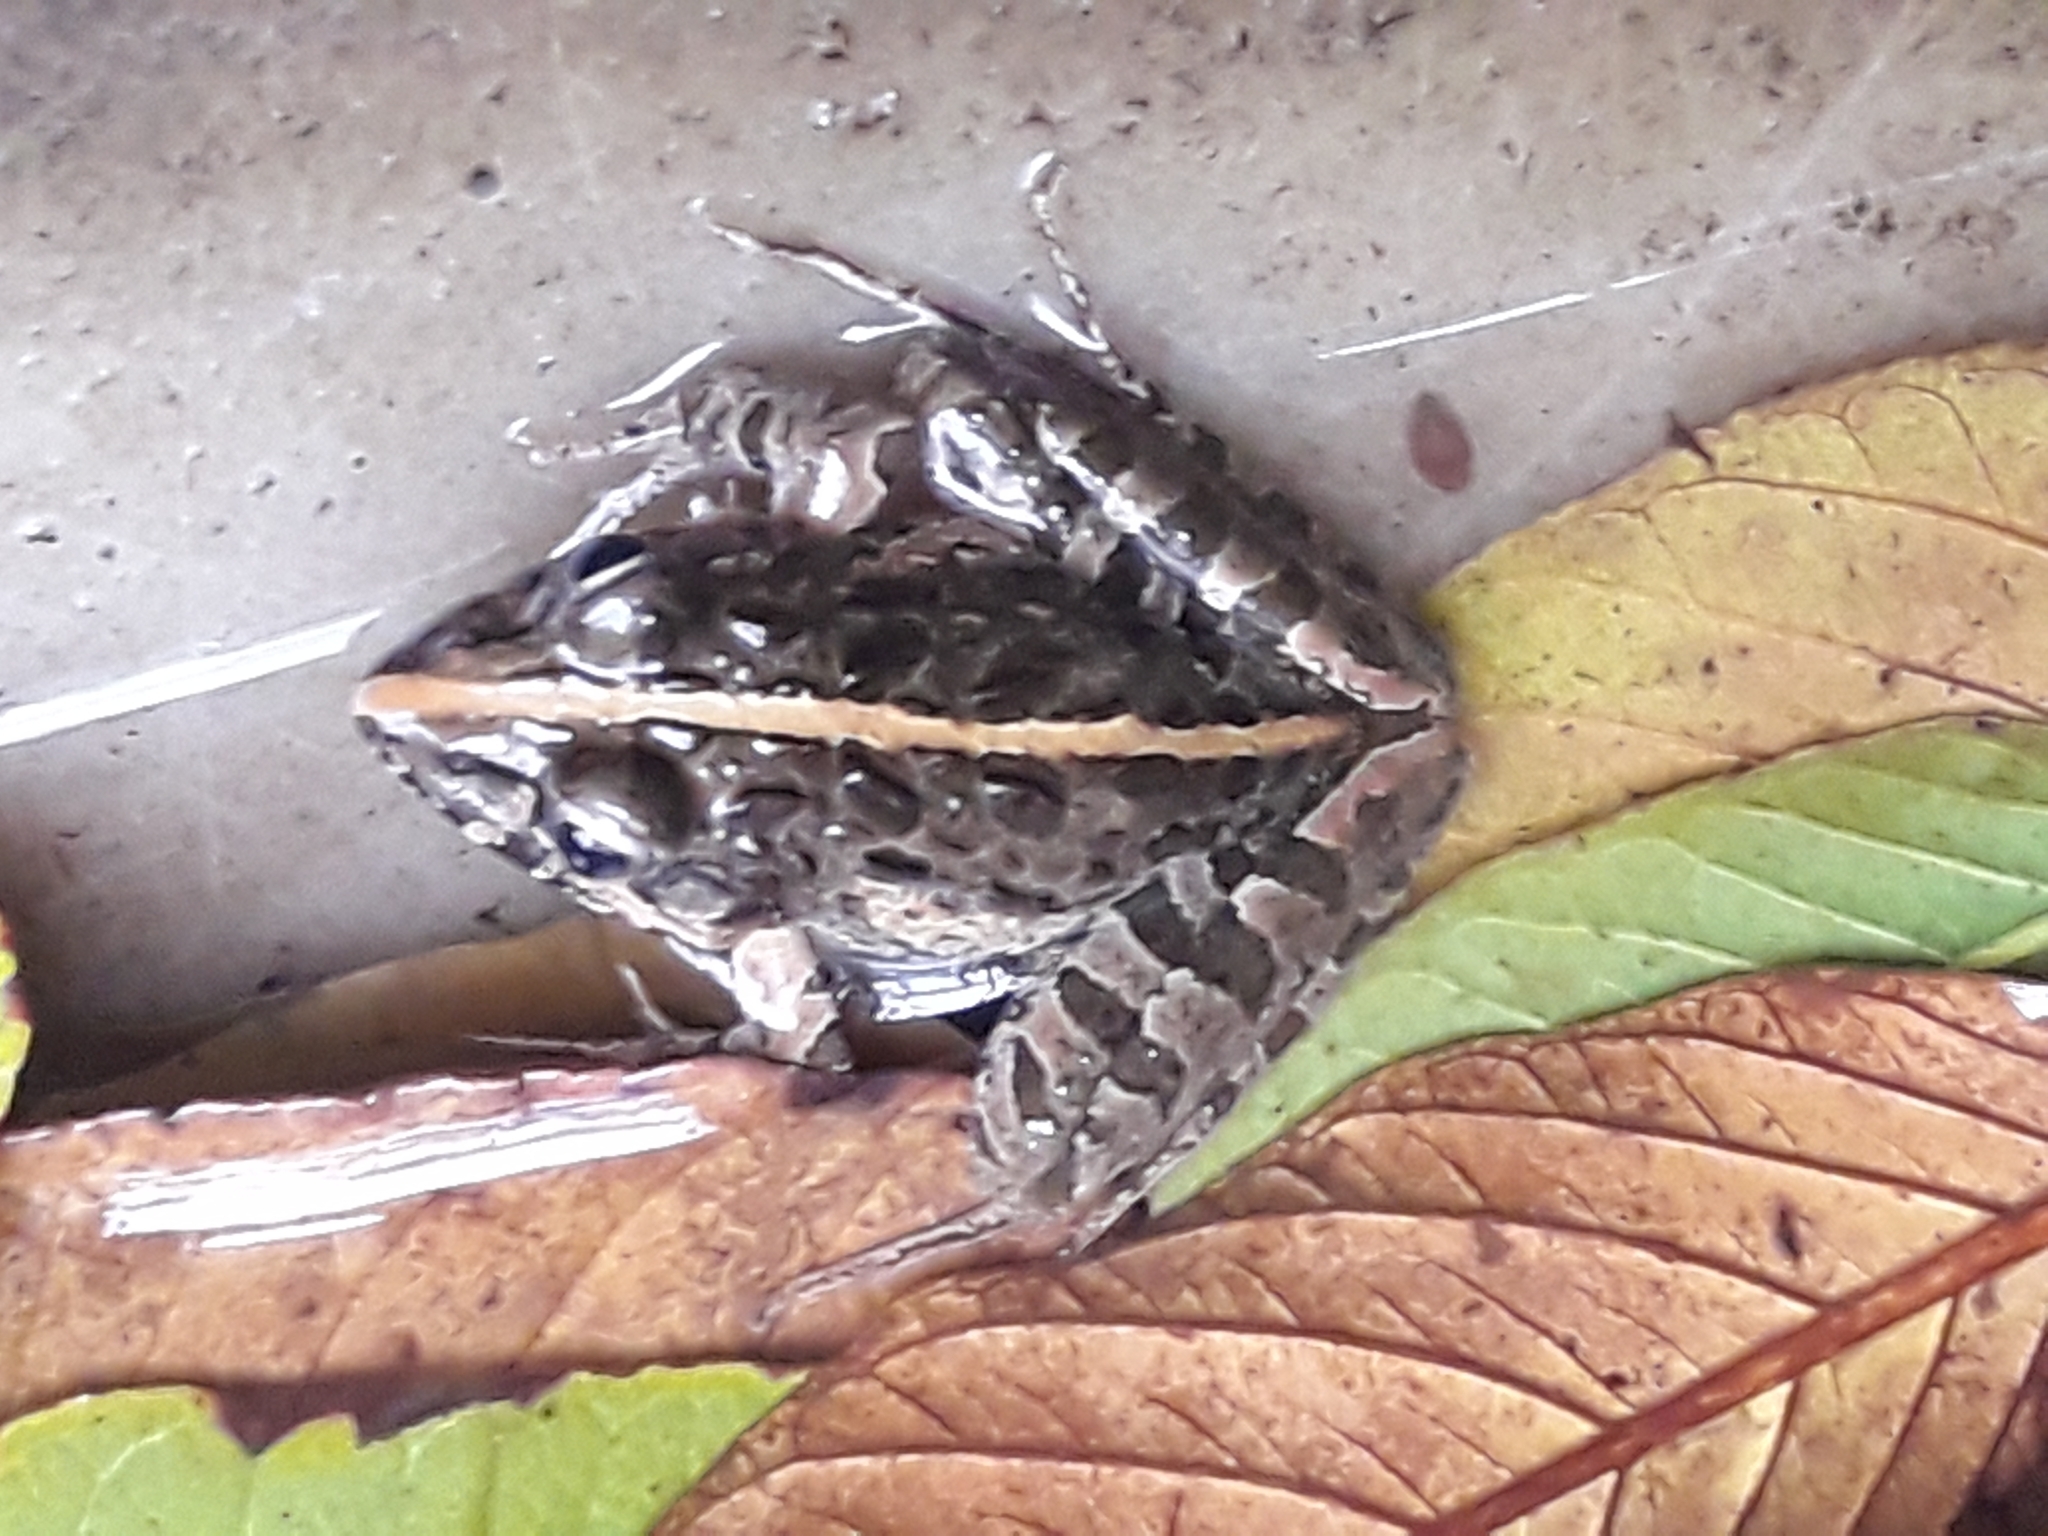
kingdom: Animalia
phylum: Chordata
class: Amphibia
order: Anura
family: Pyxicephalidae
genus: Strongylopus
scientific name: Strongylopus grayii
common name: Gray's stream frog
